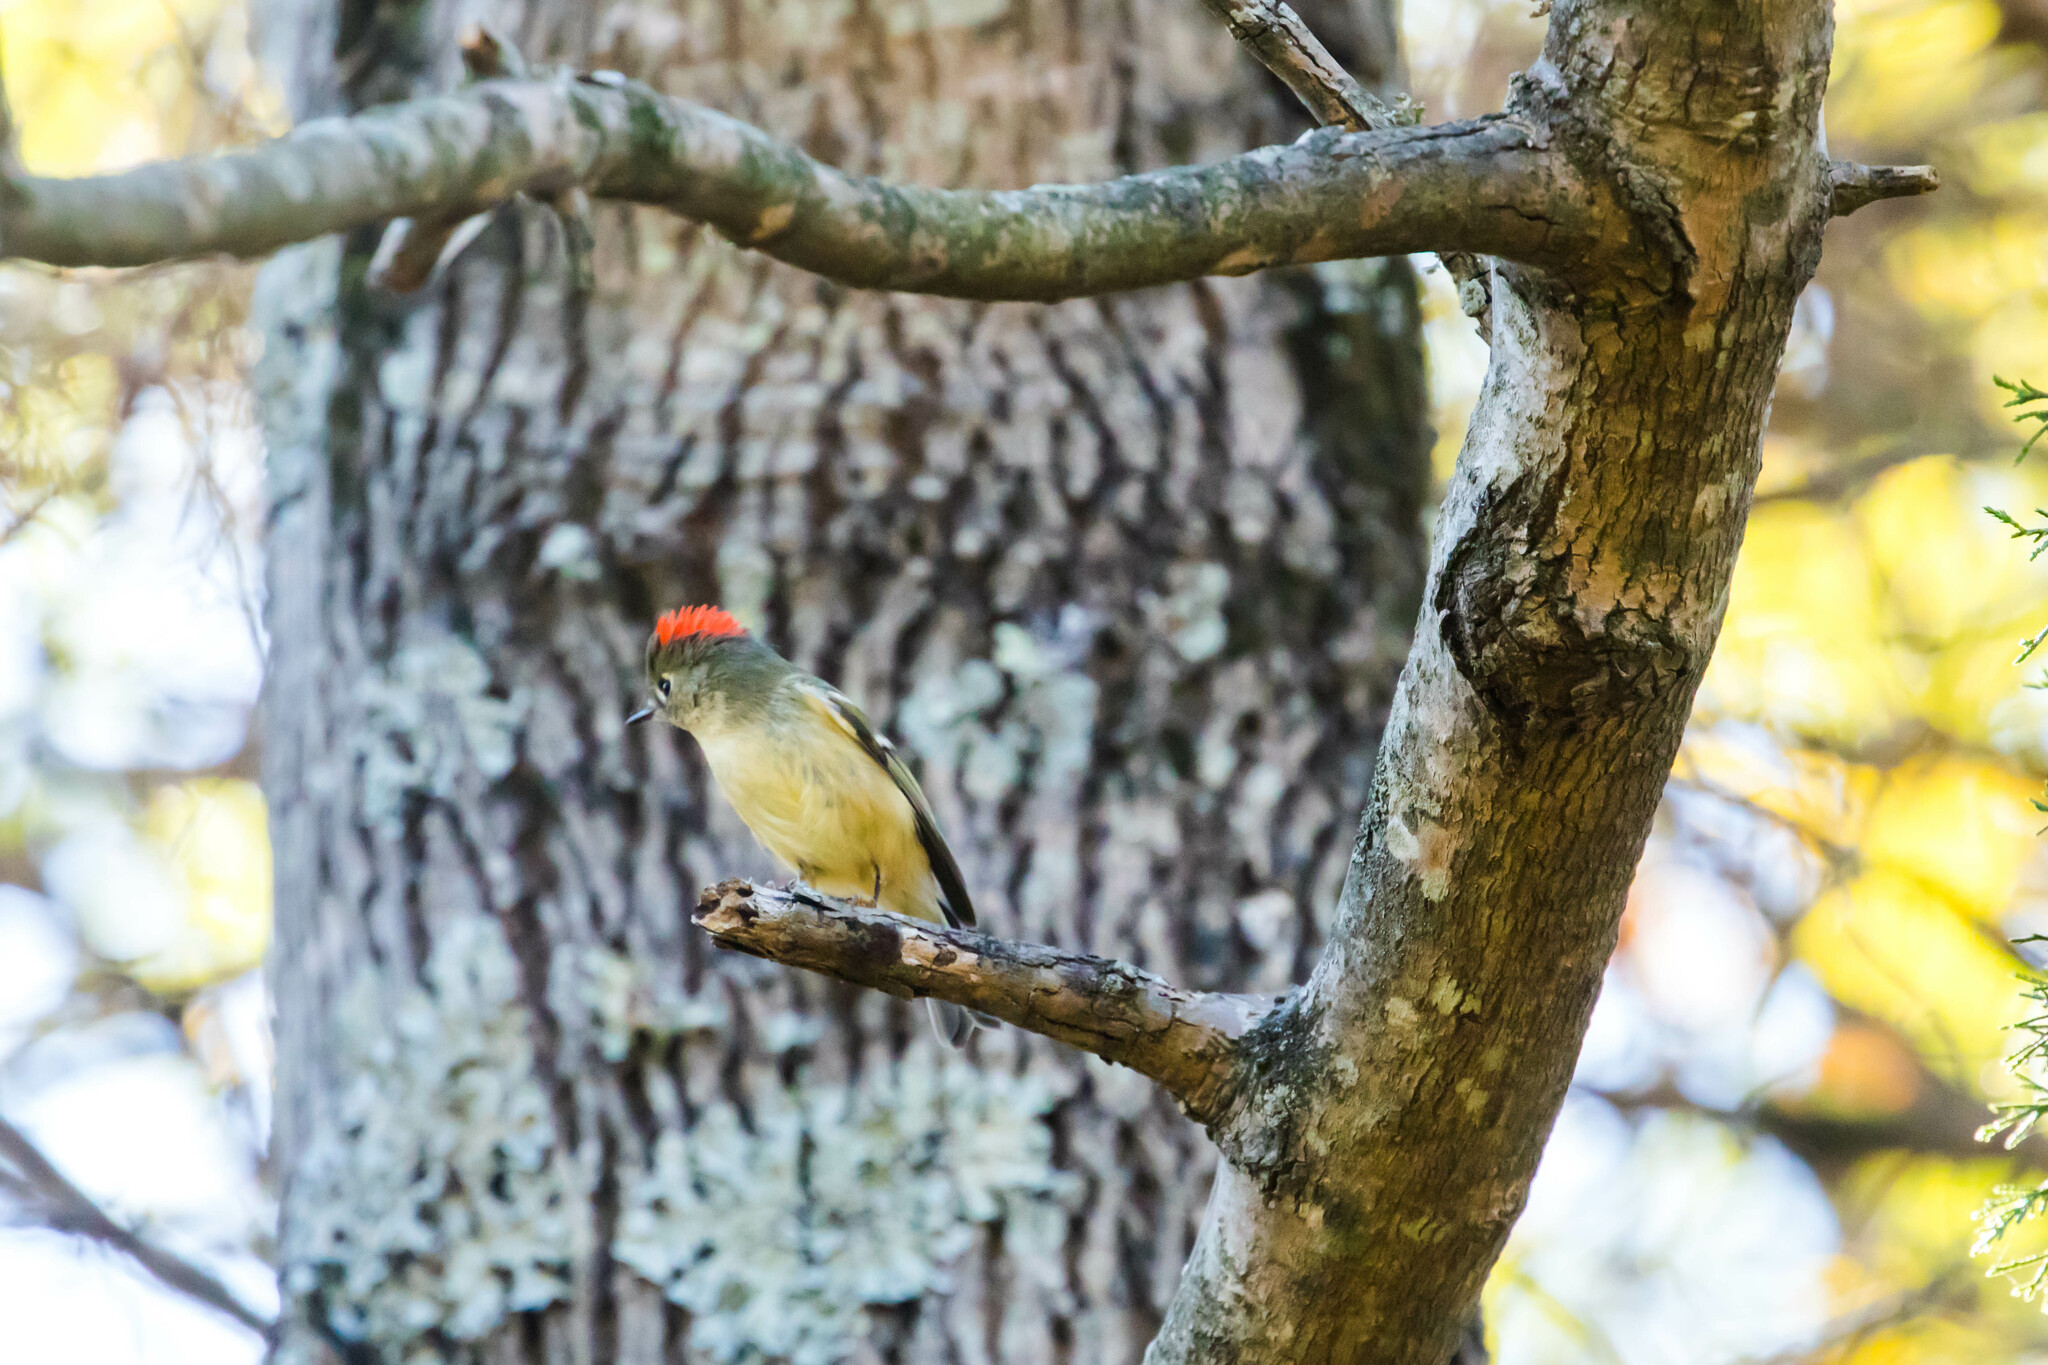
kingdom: Animalia
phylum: Chordata
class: Aves
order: Passeriformes
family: Regulidae
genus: Regulus
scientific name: Regulus calendula
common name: Ruby-crowned kinglet
